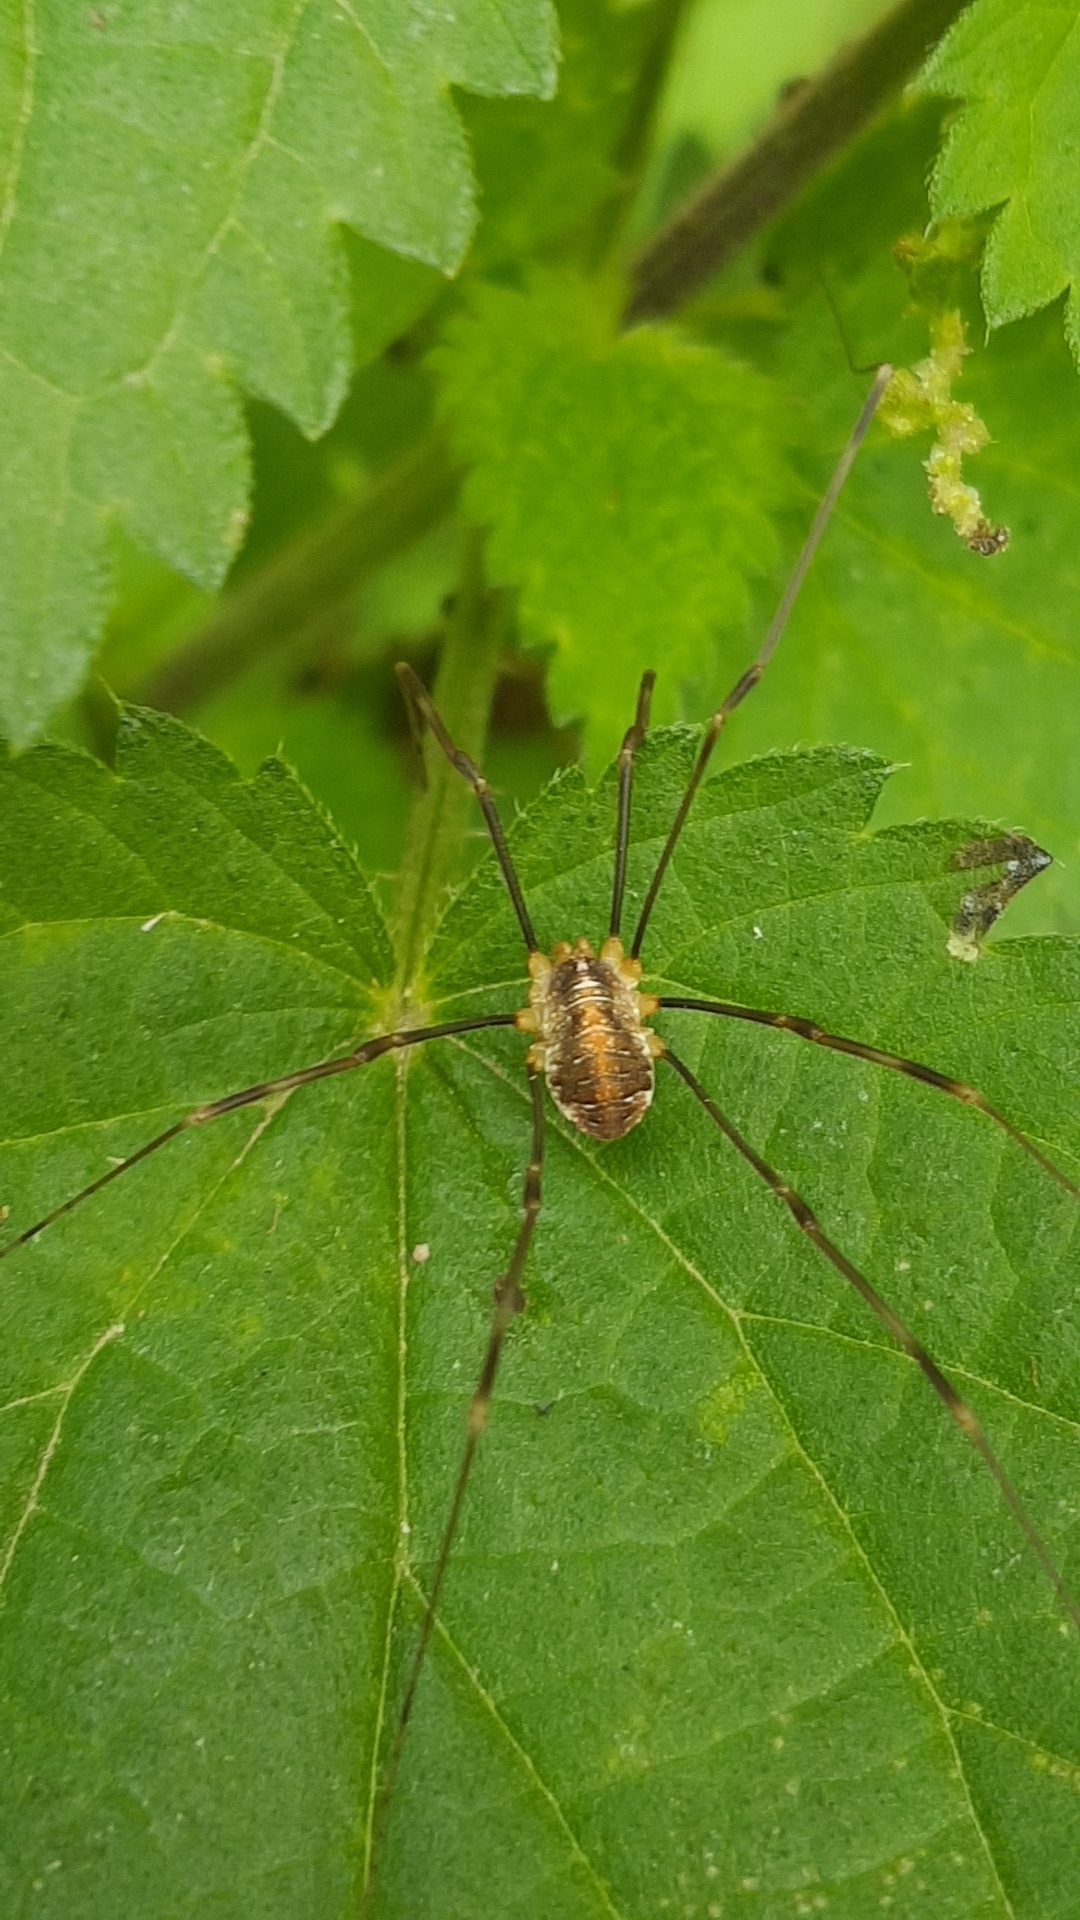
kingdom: Animalia
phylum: Arthropoda
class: Arachnida
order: Opiliones
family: Phalangiidae
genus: Opilio
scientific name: Opilio canestrinii
